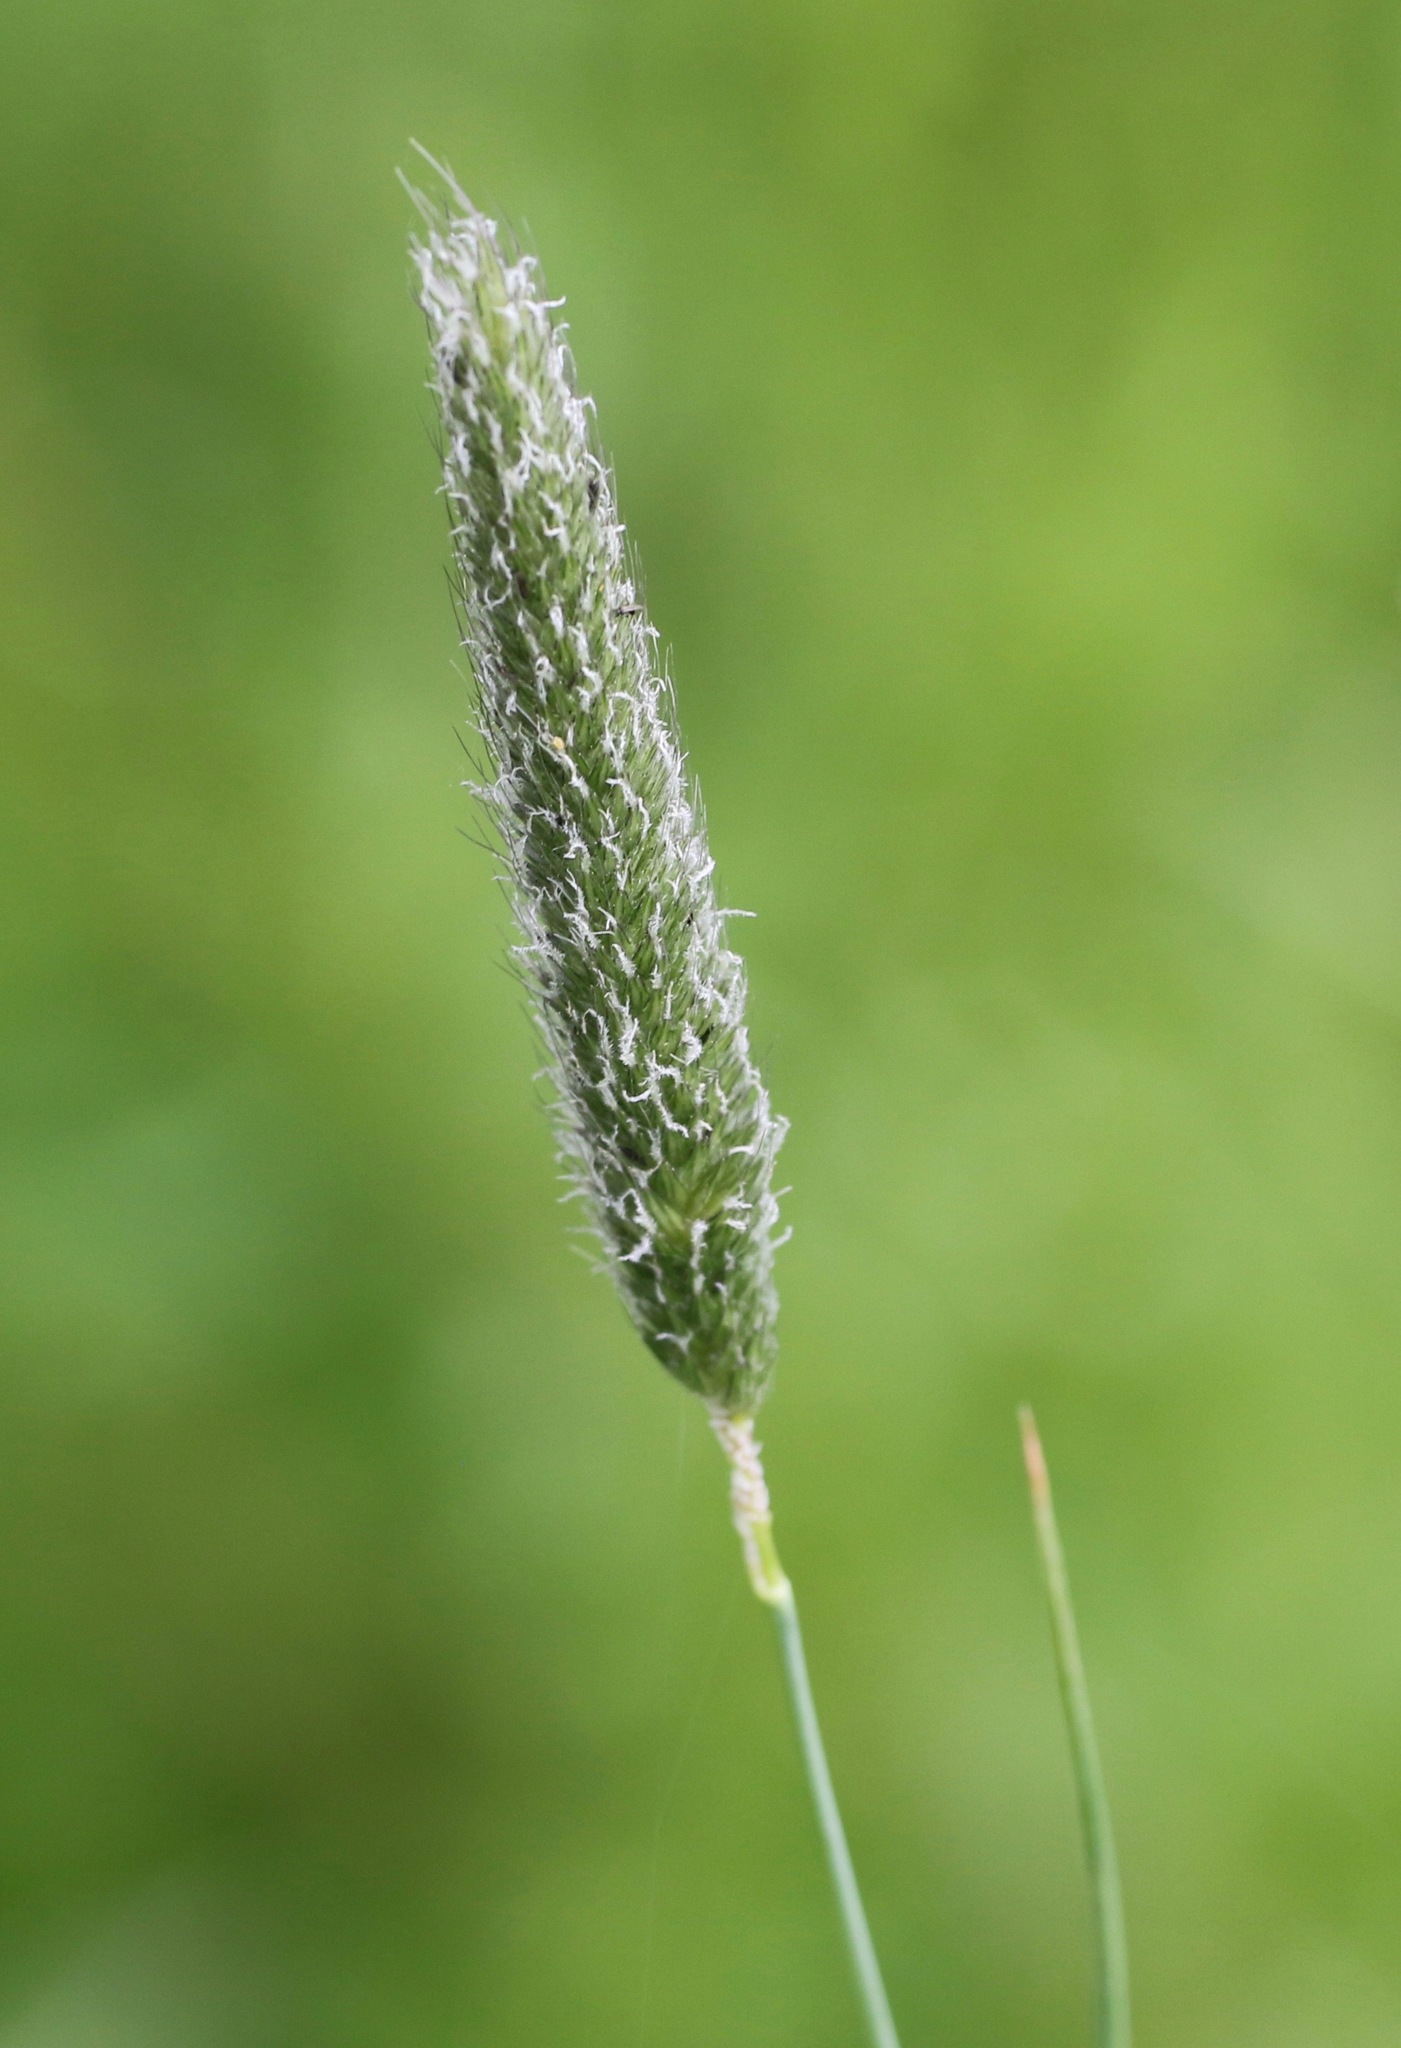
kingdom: Plantae
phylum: Tracheophyta
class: Liliopsida
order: Poales
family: Poaceae
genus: Alopecurus
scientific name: Alopecurus pratensis
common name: Meadow foxtail
